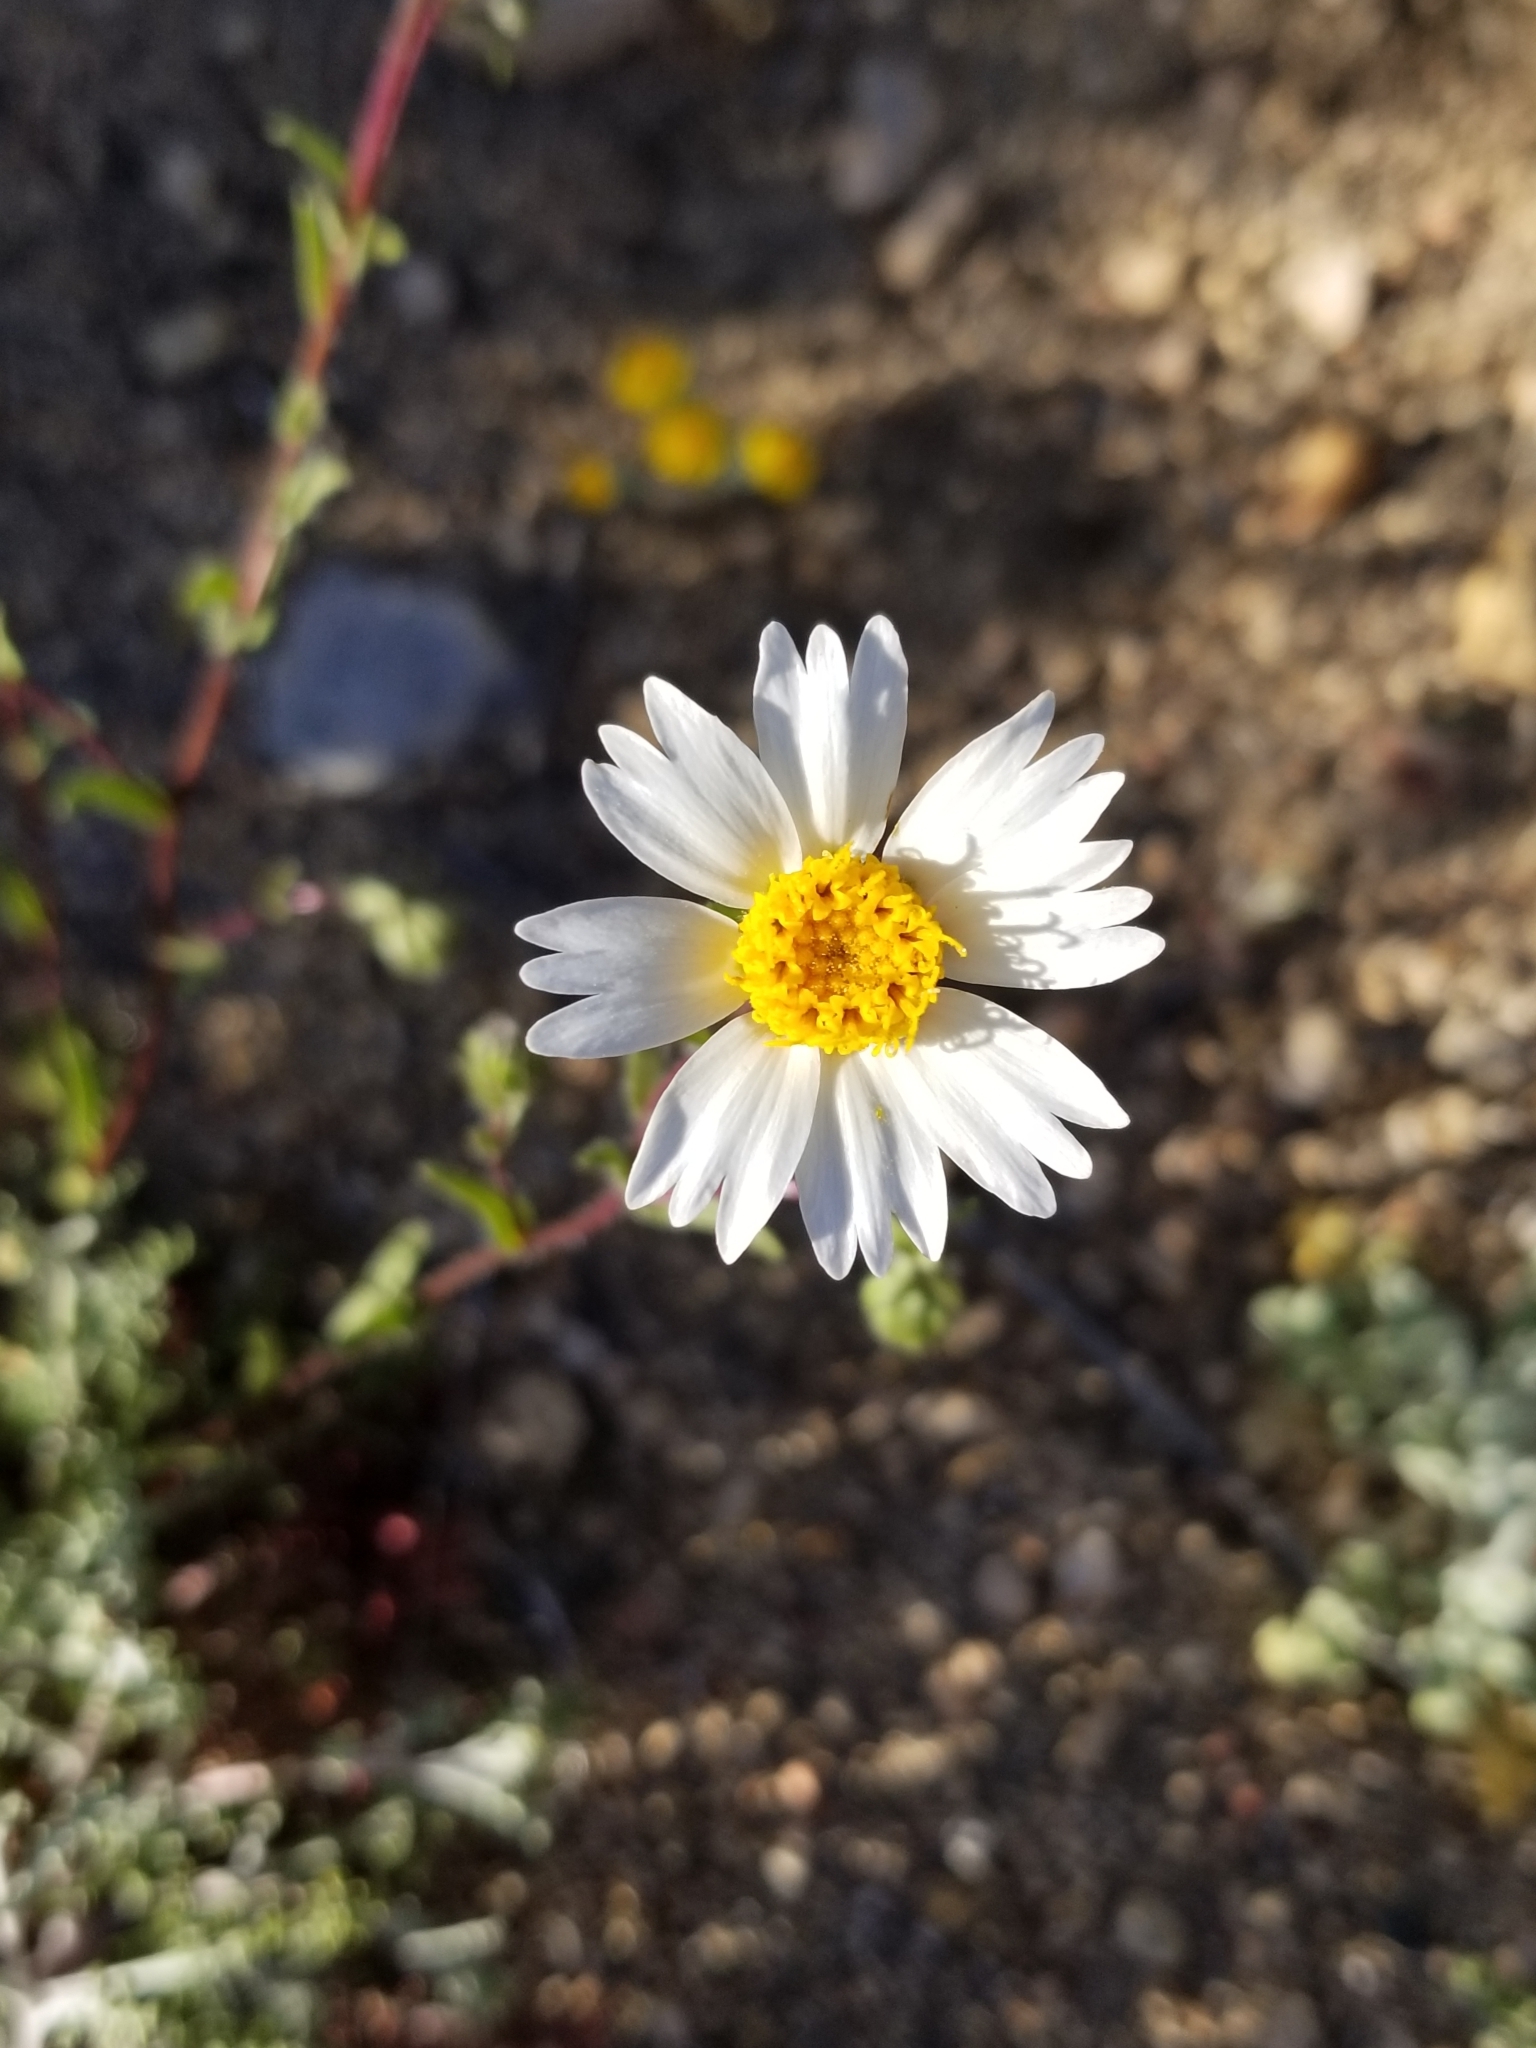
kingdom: Plantae
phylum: Tracheophyta
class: Magnoliopsida
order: Asterales
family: Asteraceae
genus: Layia
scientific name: Layia glandulosa
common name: White layia
